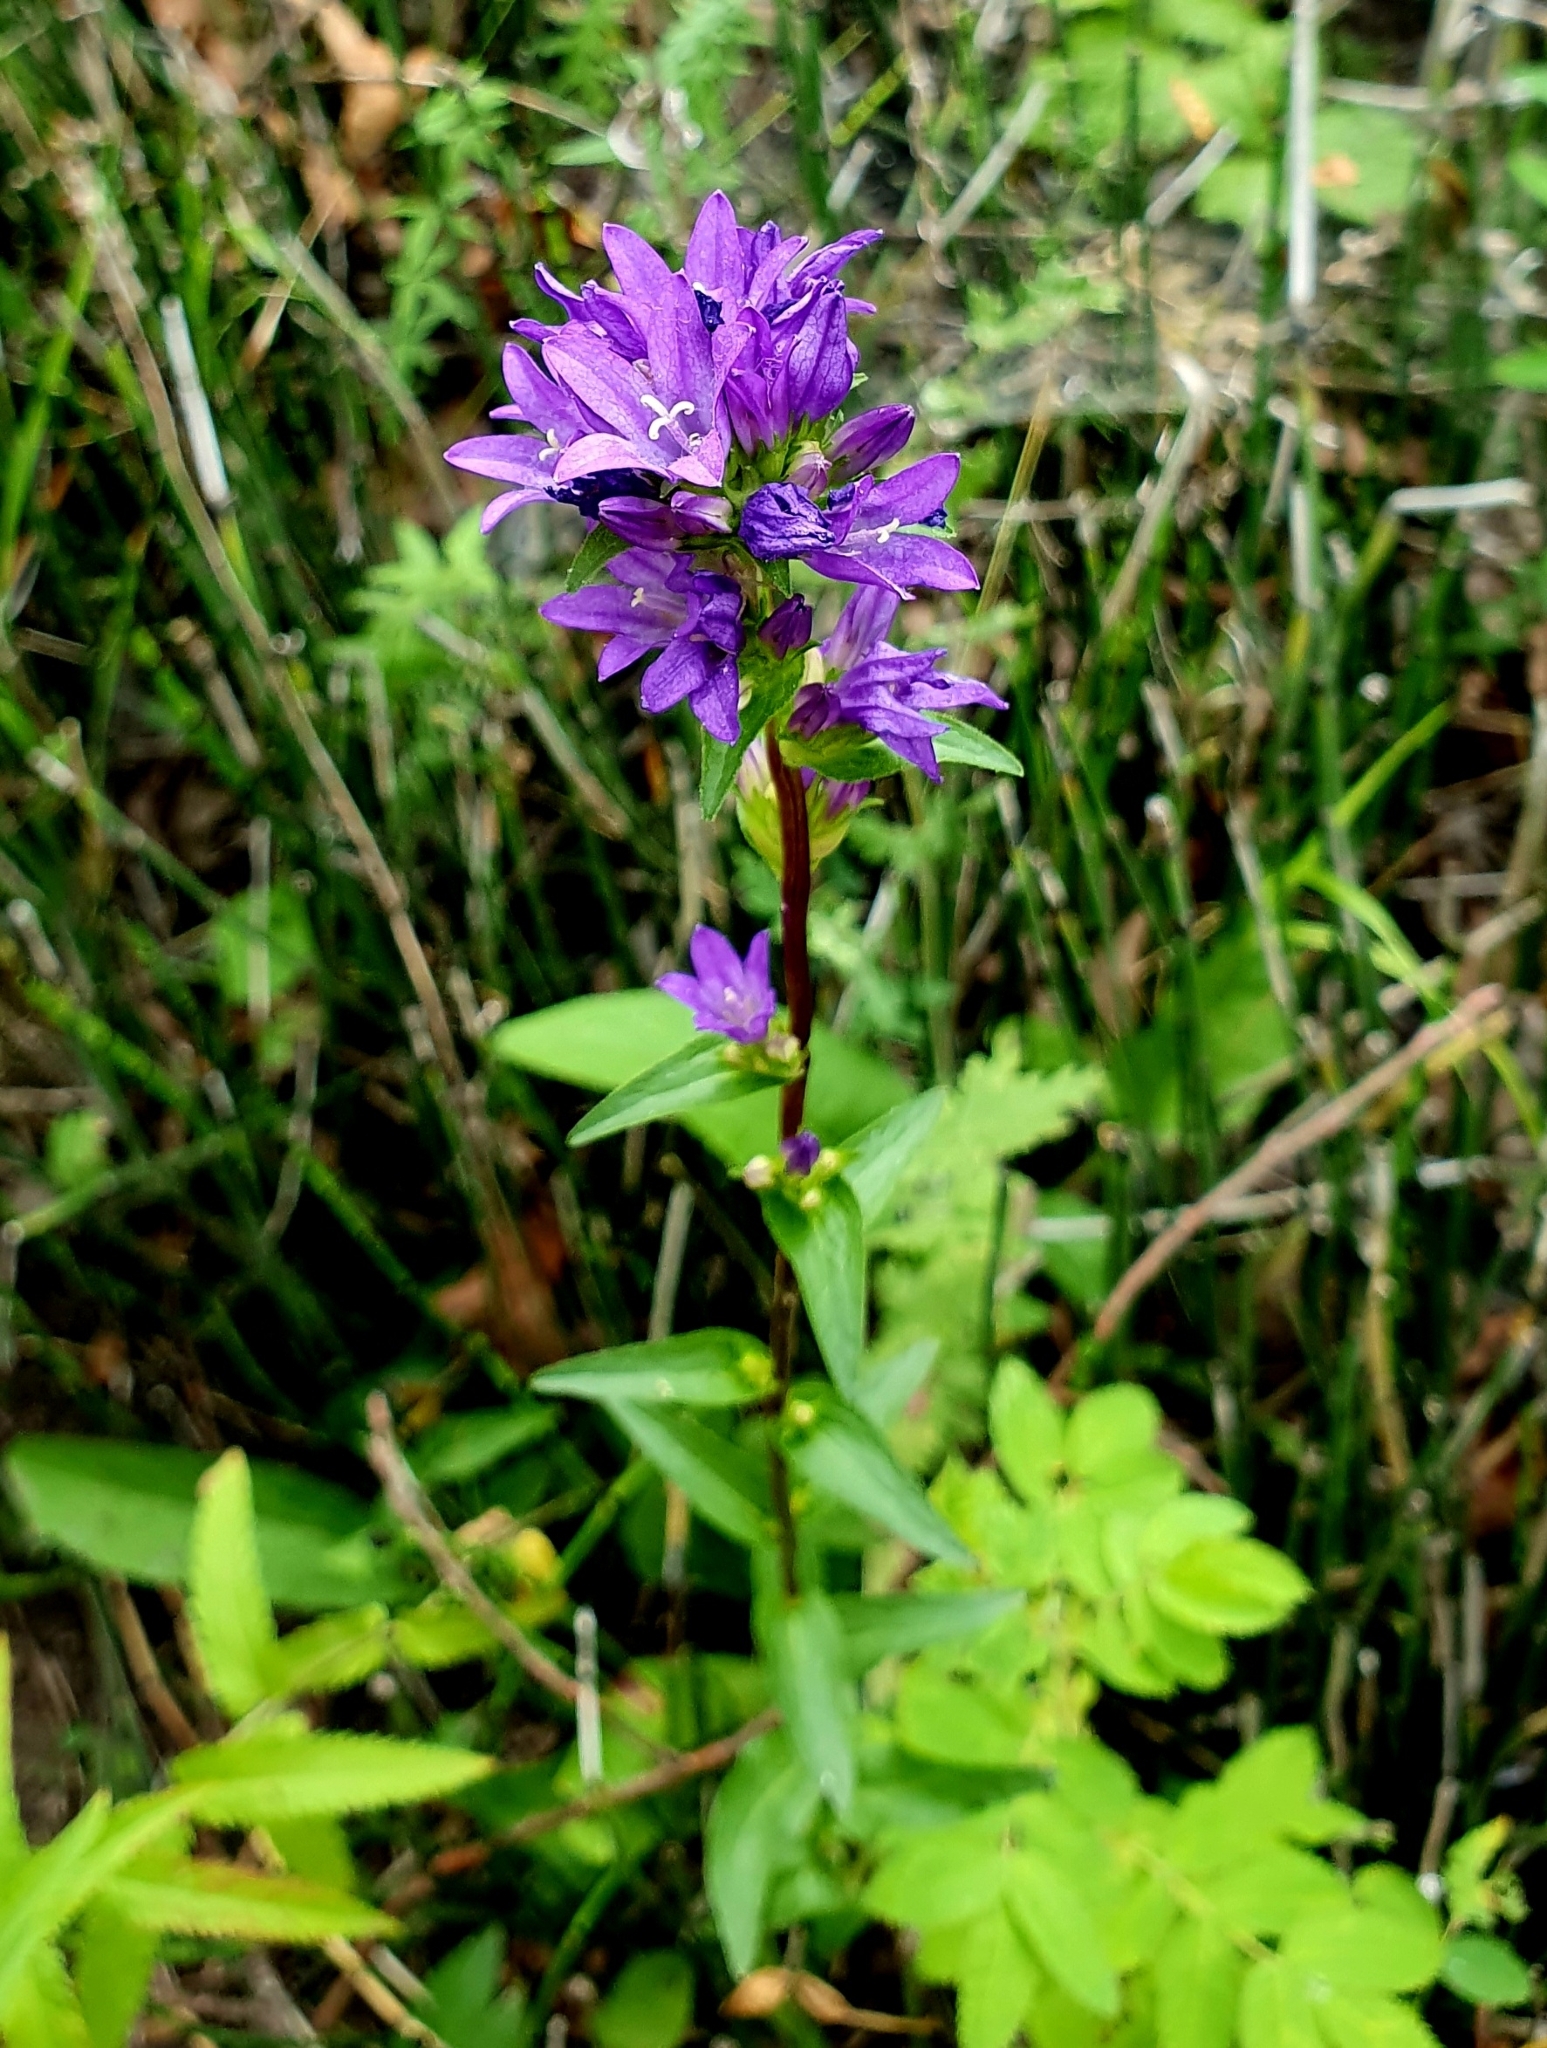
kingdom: Plantae
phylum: Tracheophyta
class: Magnoliopsida
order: Asterales
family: Campanulaceae
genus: Campanula
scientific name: Campanula glomerata
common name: Clustered bellflower
